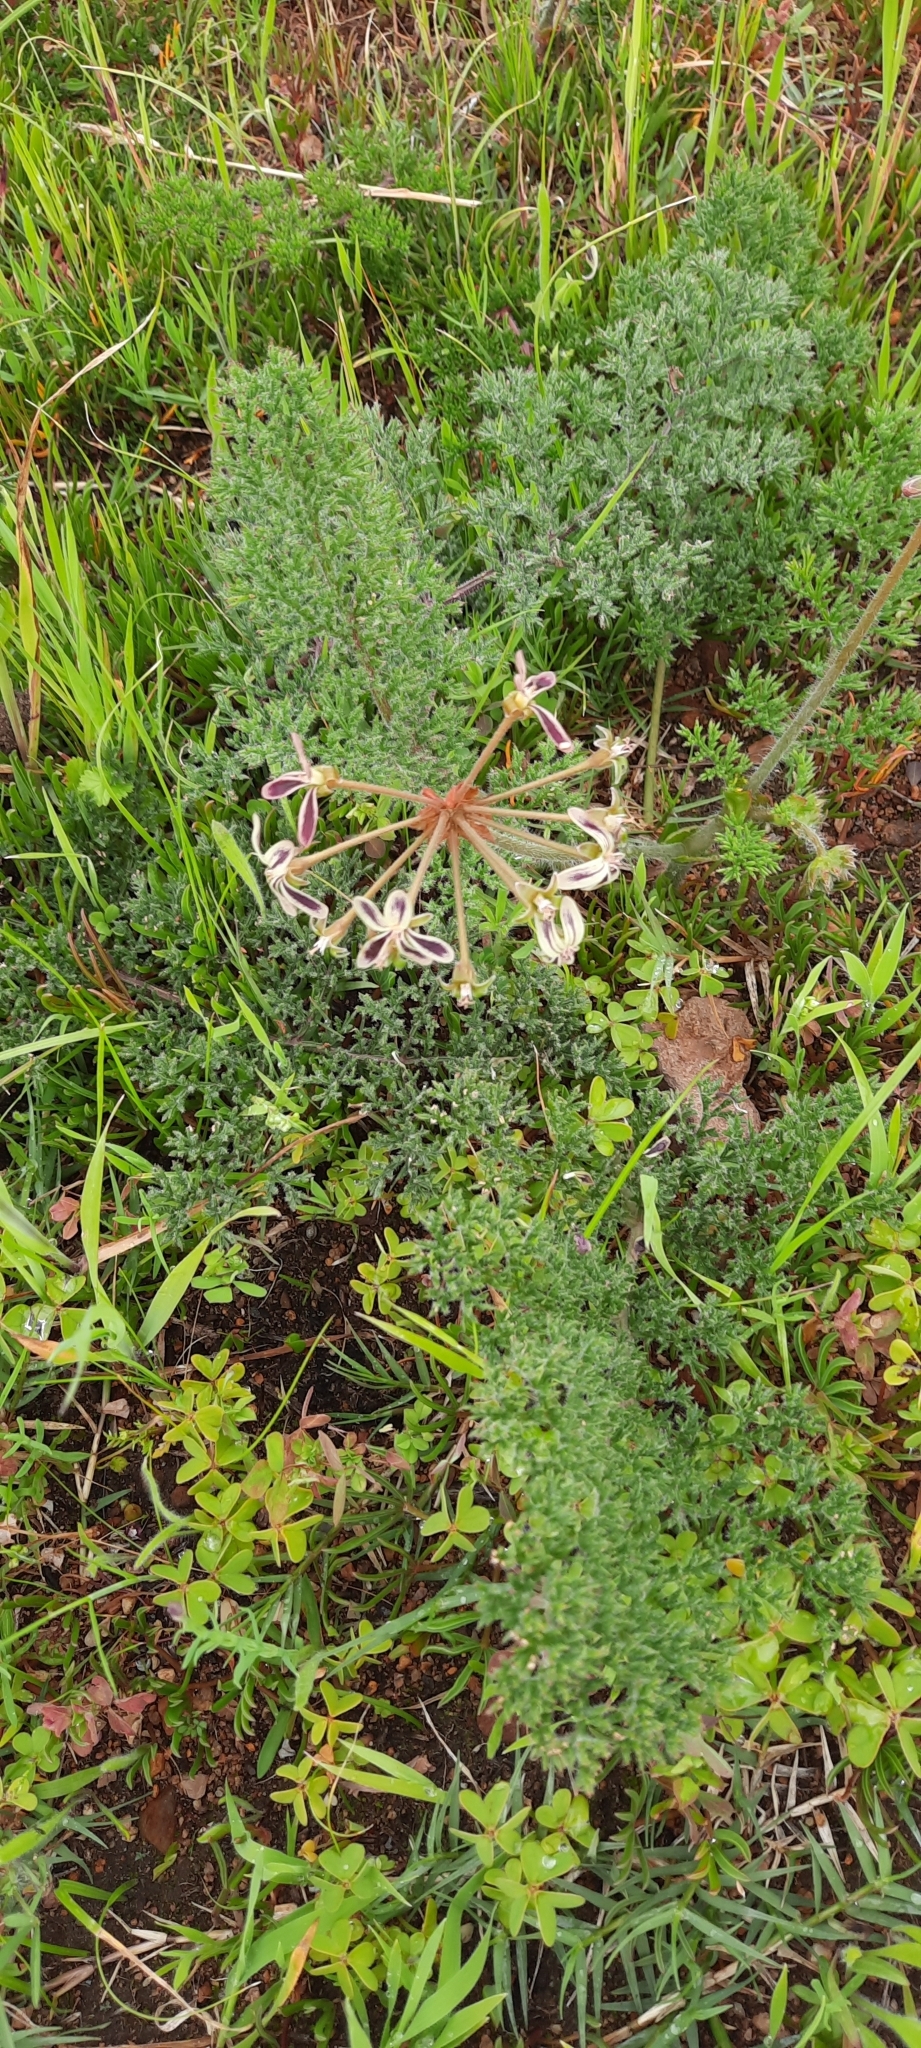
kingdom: Plantae
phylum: Tracheophyta
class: Magnoliopsida
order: Geraniales
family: Geraniaceae
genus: Pelargonium
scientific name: Pelargonium triste
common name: Night-scent pelargonium
